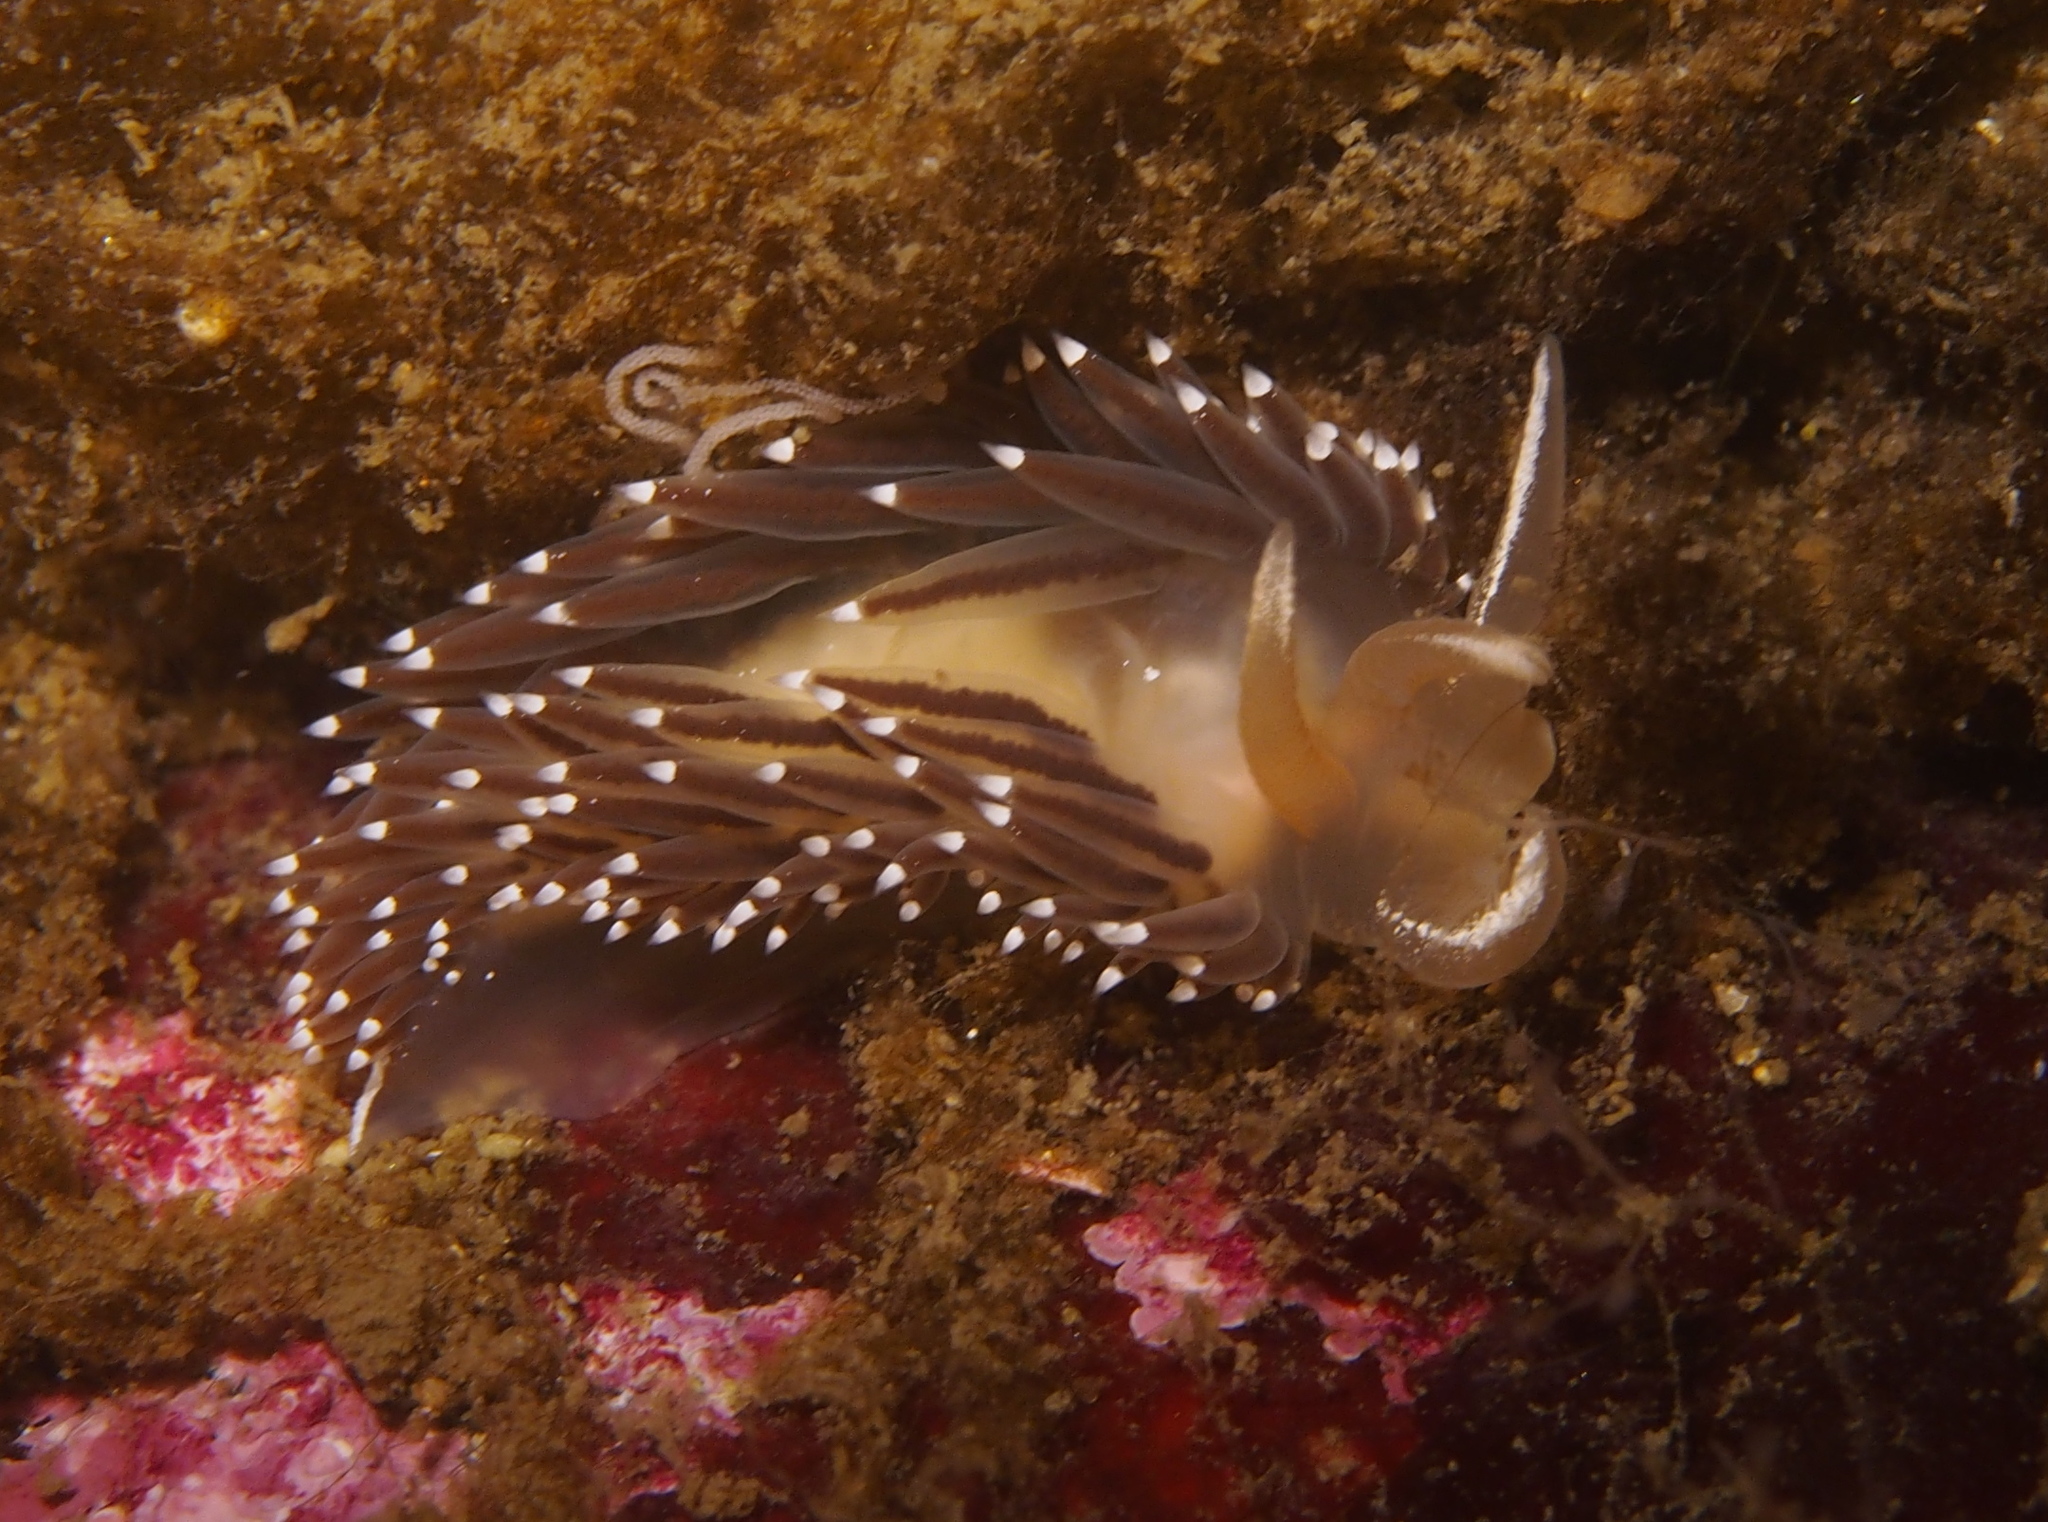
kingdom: Animalia
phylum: Mollusca
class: Gastropoda
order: Nudibranchia
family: Coryphellidae
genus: Coryphella
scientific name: Coryphella verrucosa
